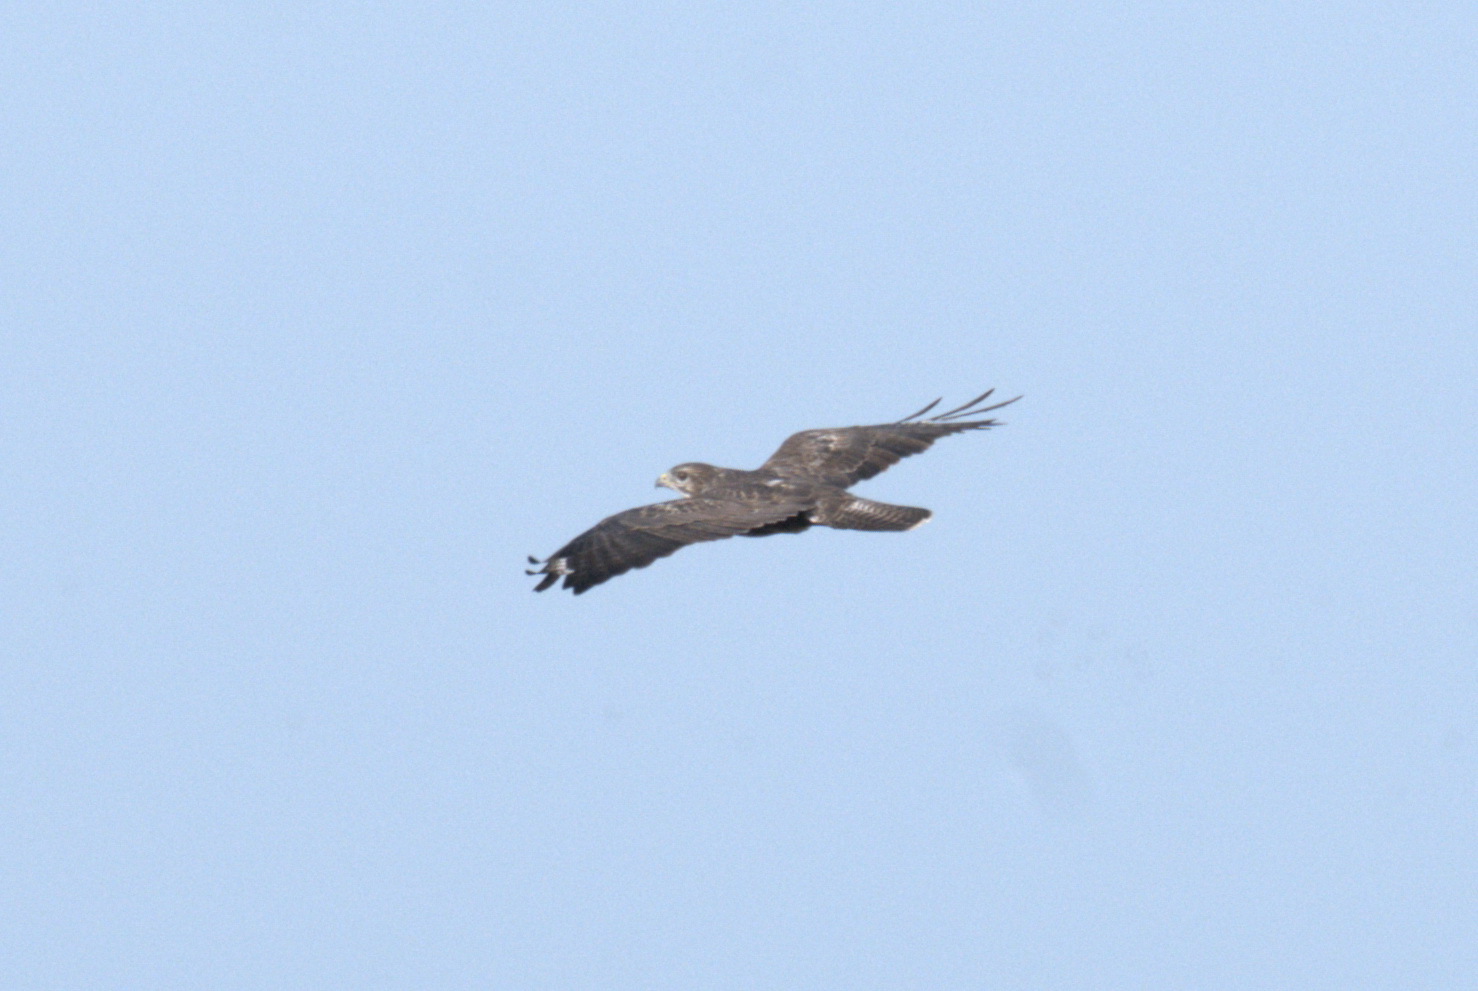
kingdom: Animalia
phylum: Chordata
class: Aves
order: Accipitriformes
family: Accipitridae
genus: Buteo
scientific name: Buteo buteo
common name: Common buzzard
